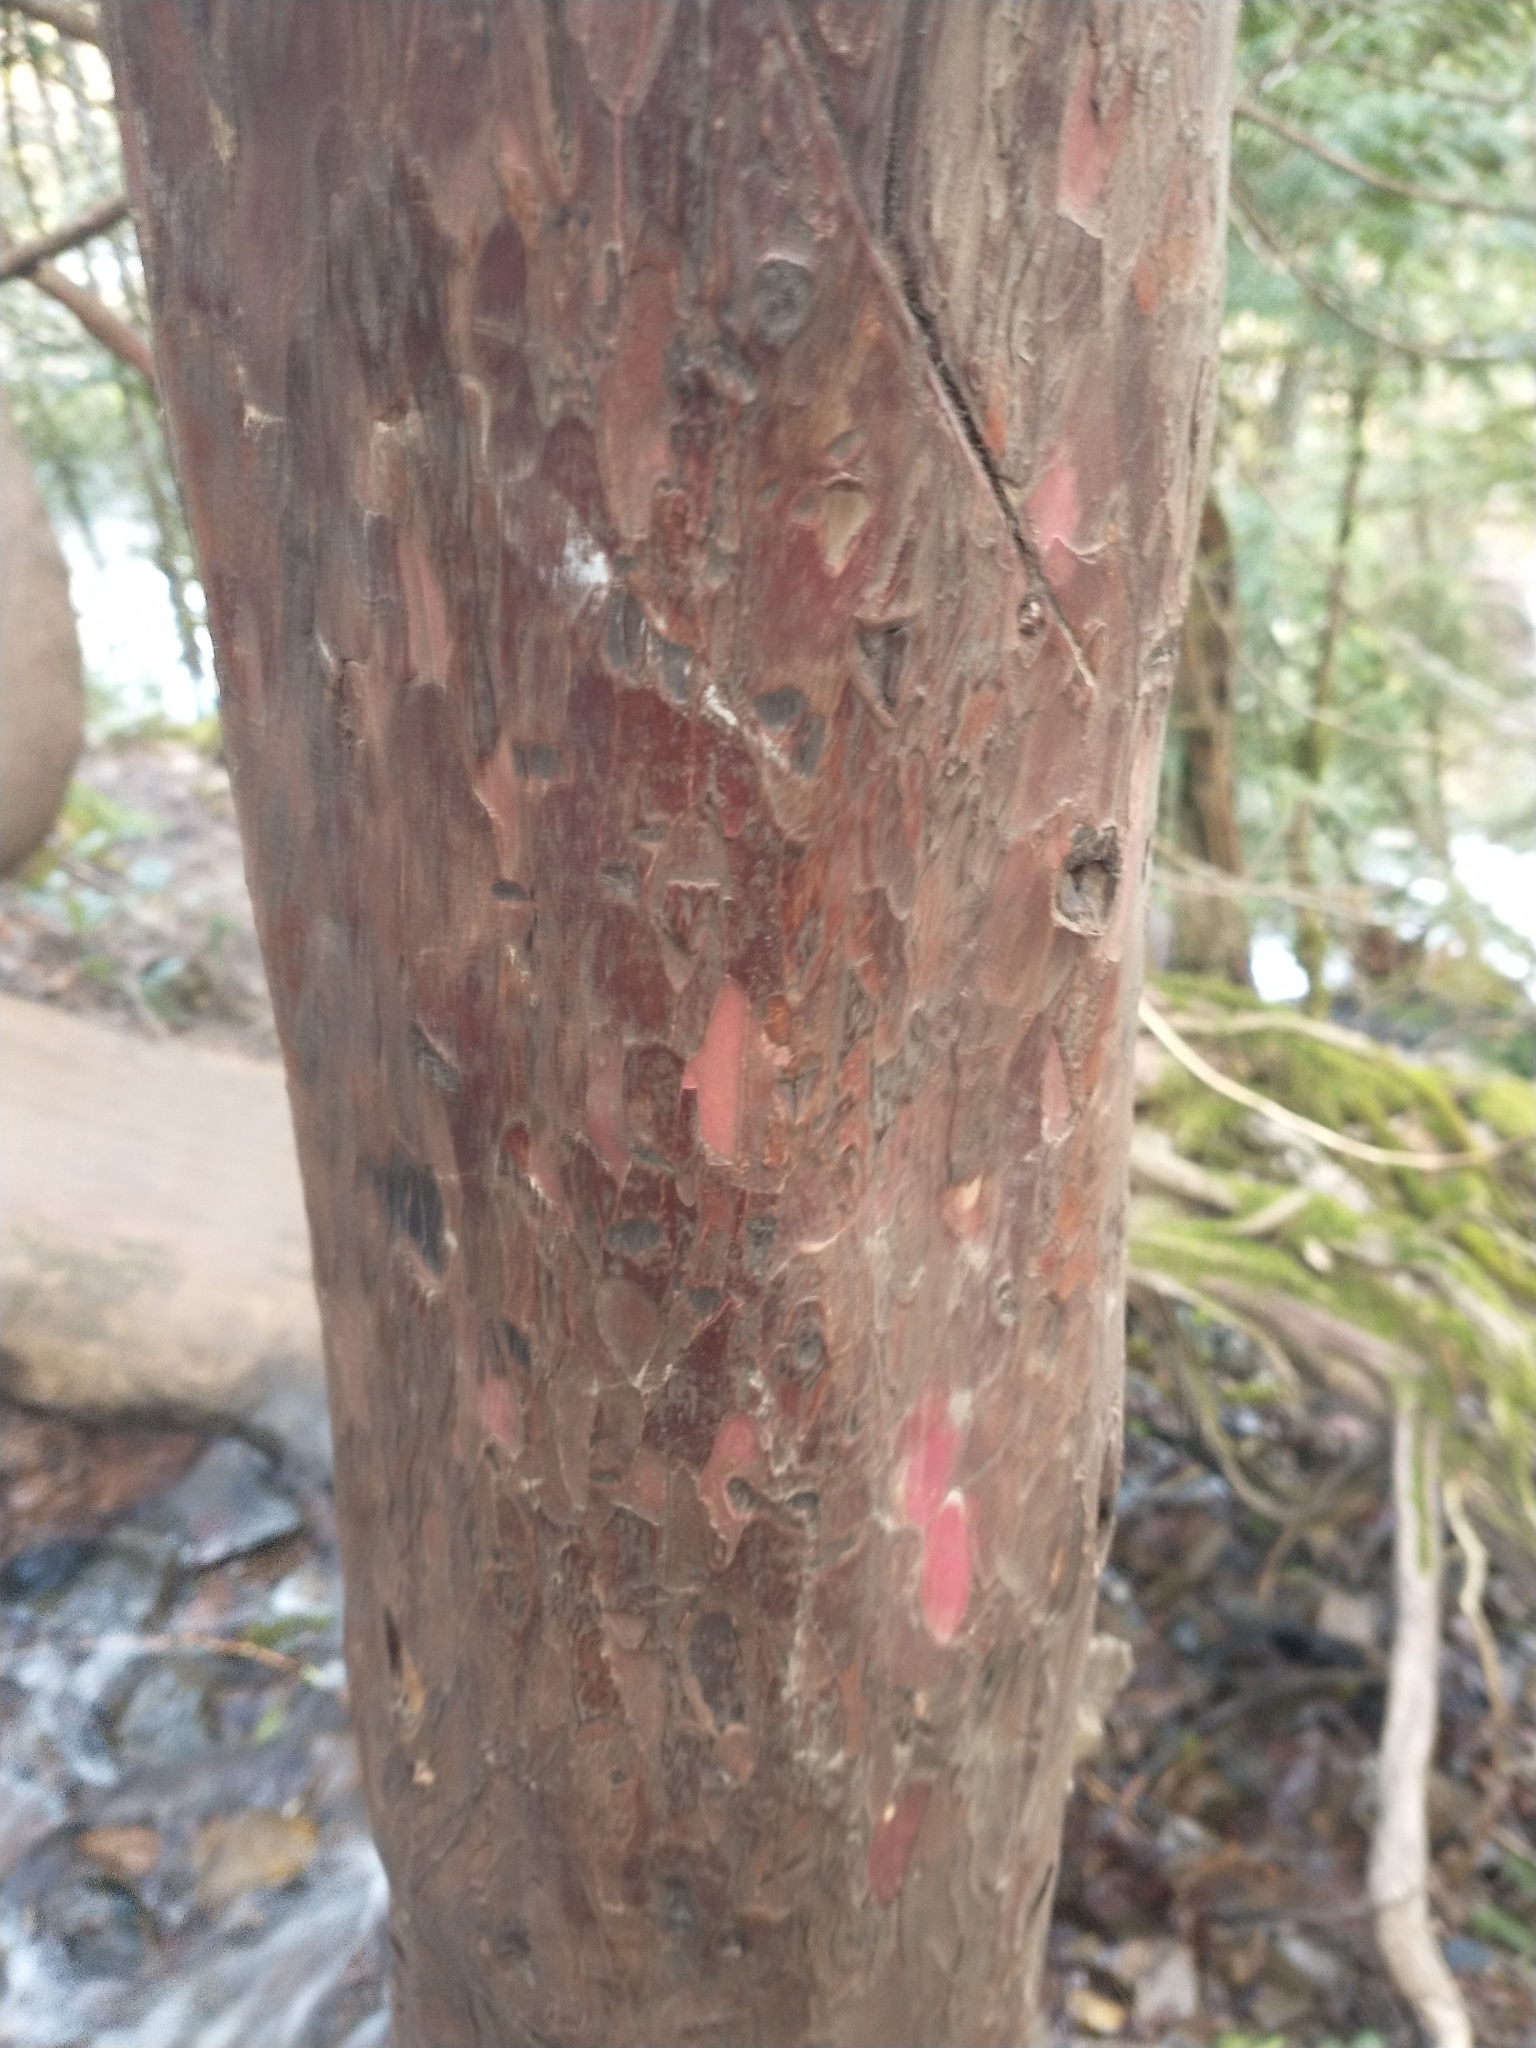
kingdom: Plantae
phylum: Tracheophyta
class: Pinopsida
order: Pinales
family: Taxaceae
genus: Taxus
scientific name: Taxus brevifolia
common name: Pacific yew
